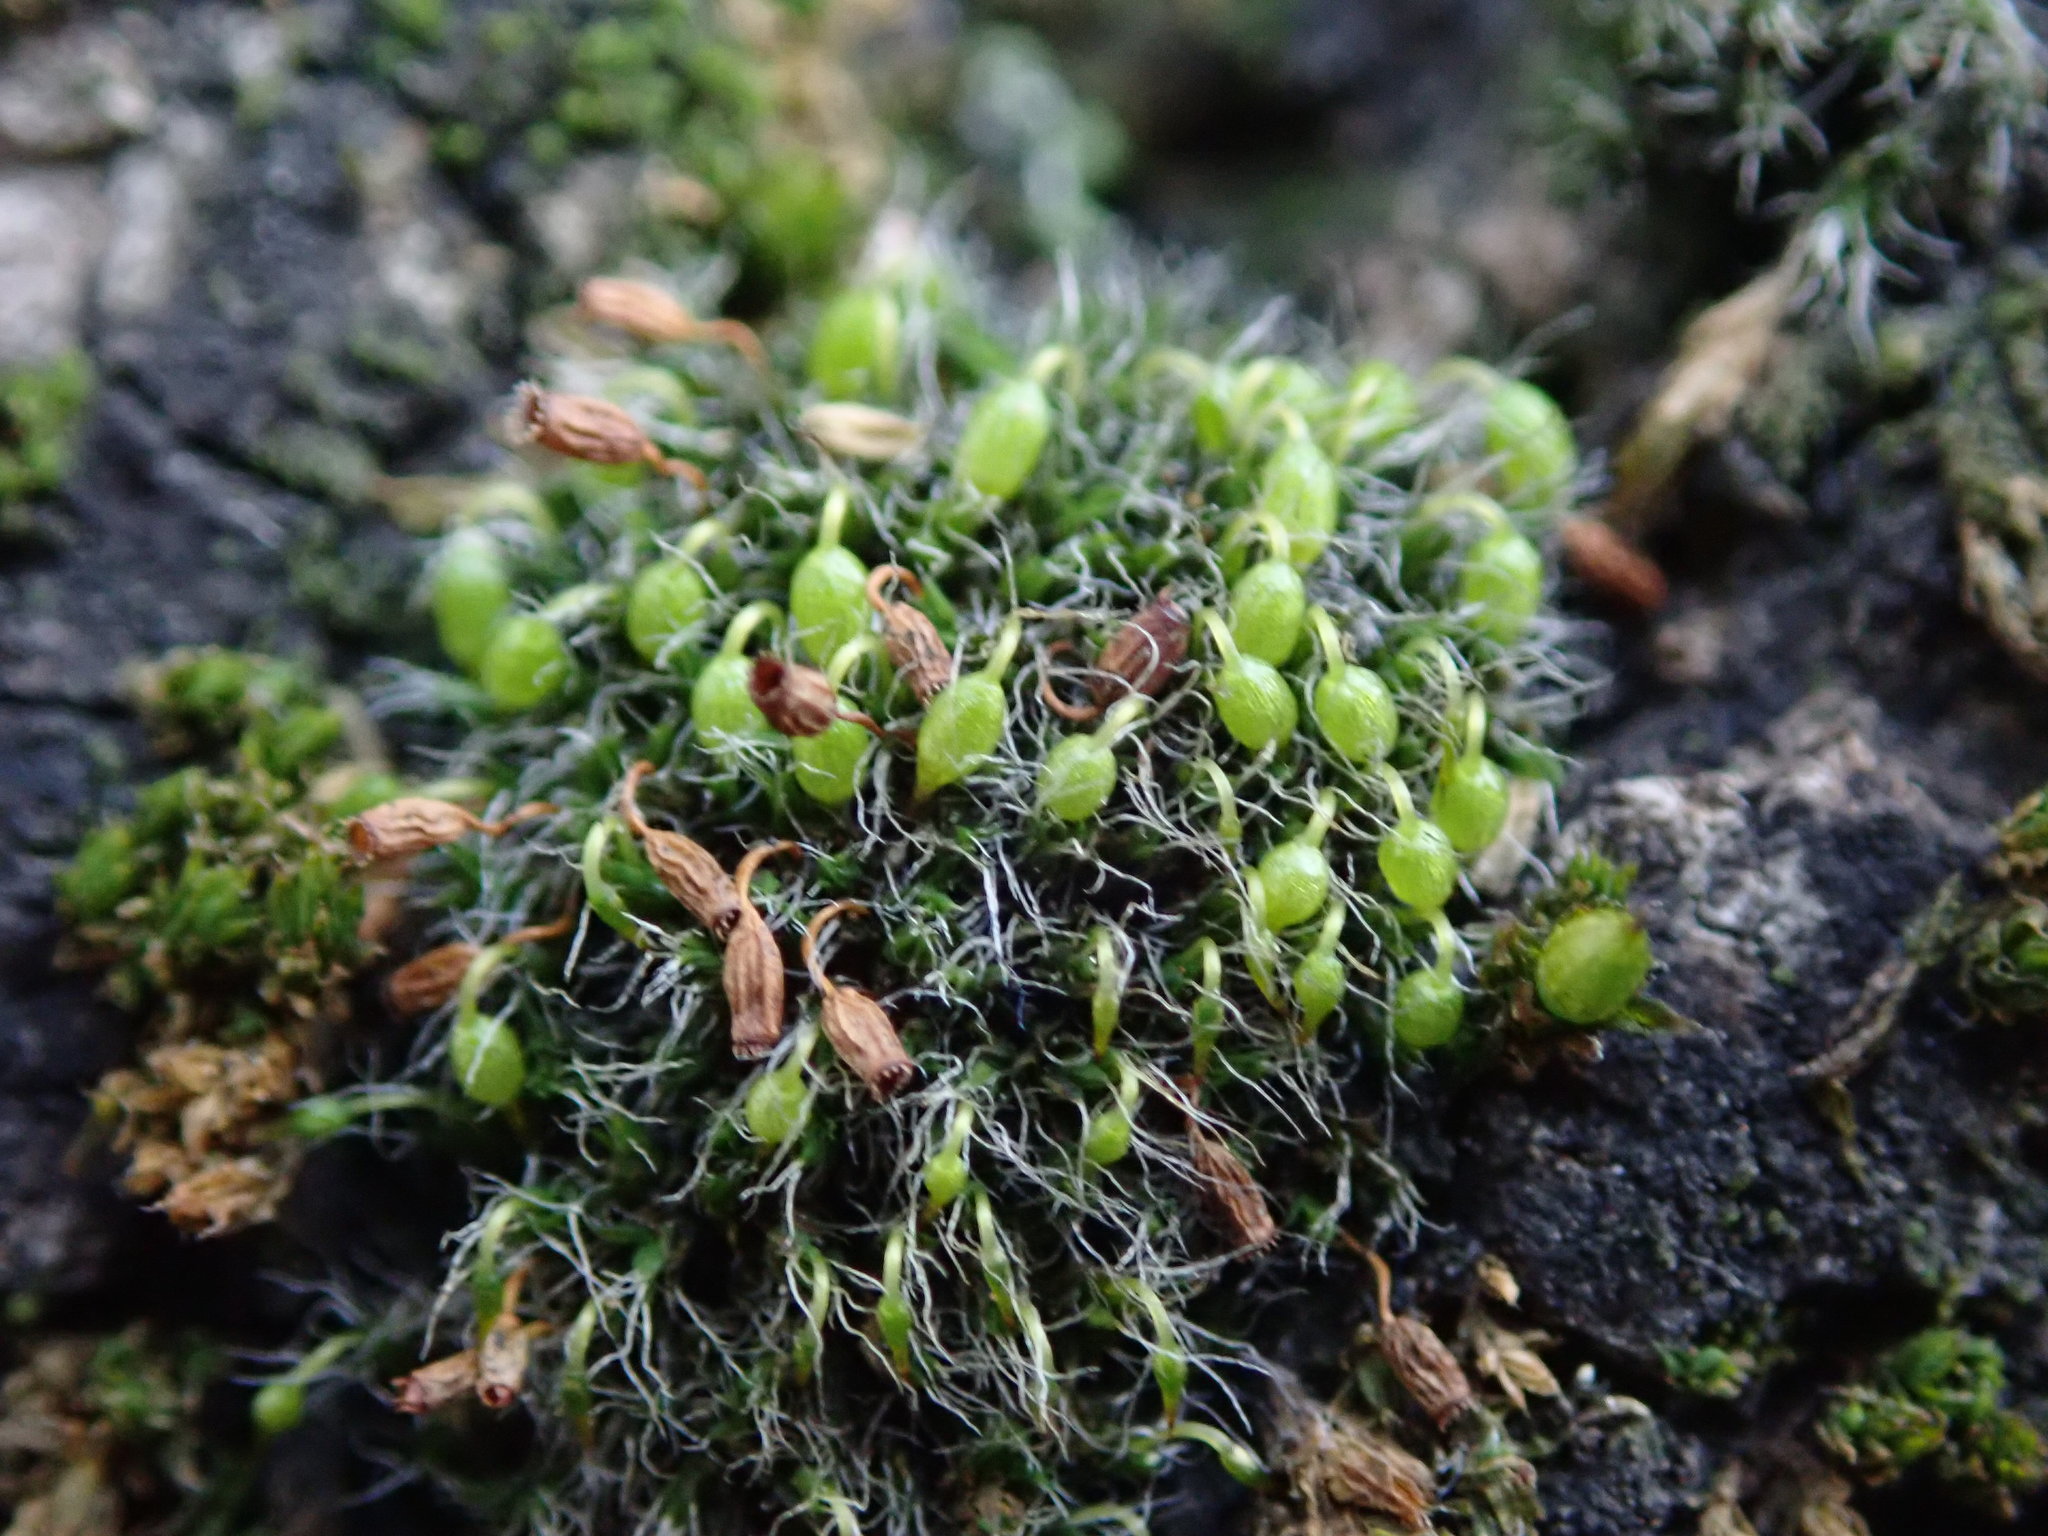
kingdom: Plantae
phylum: Bryophyta
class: Bryopsida
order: Grimmiales
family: Grimmiaceae
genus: Grimmia
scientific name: Grimmia pulvinata
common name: Grey-cushioned grimmia
